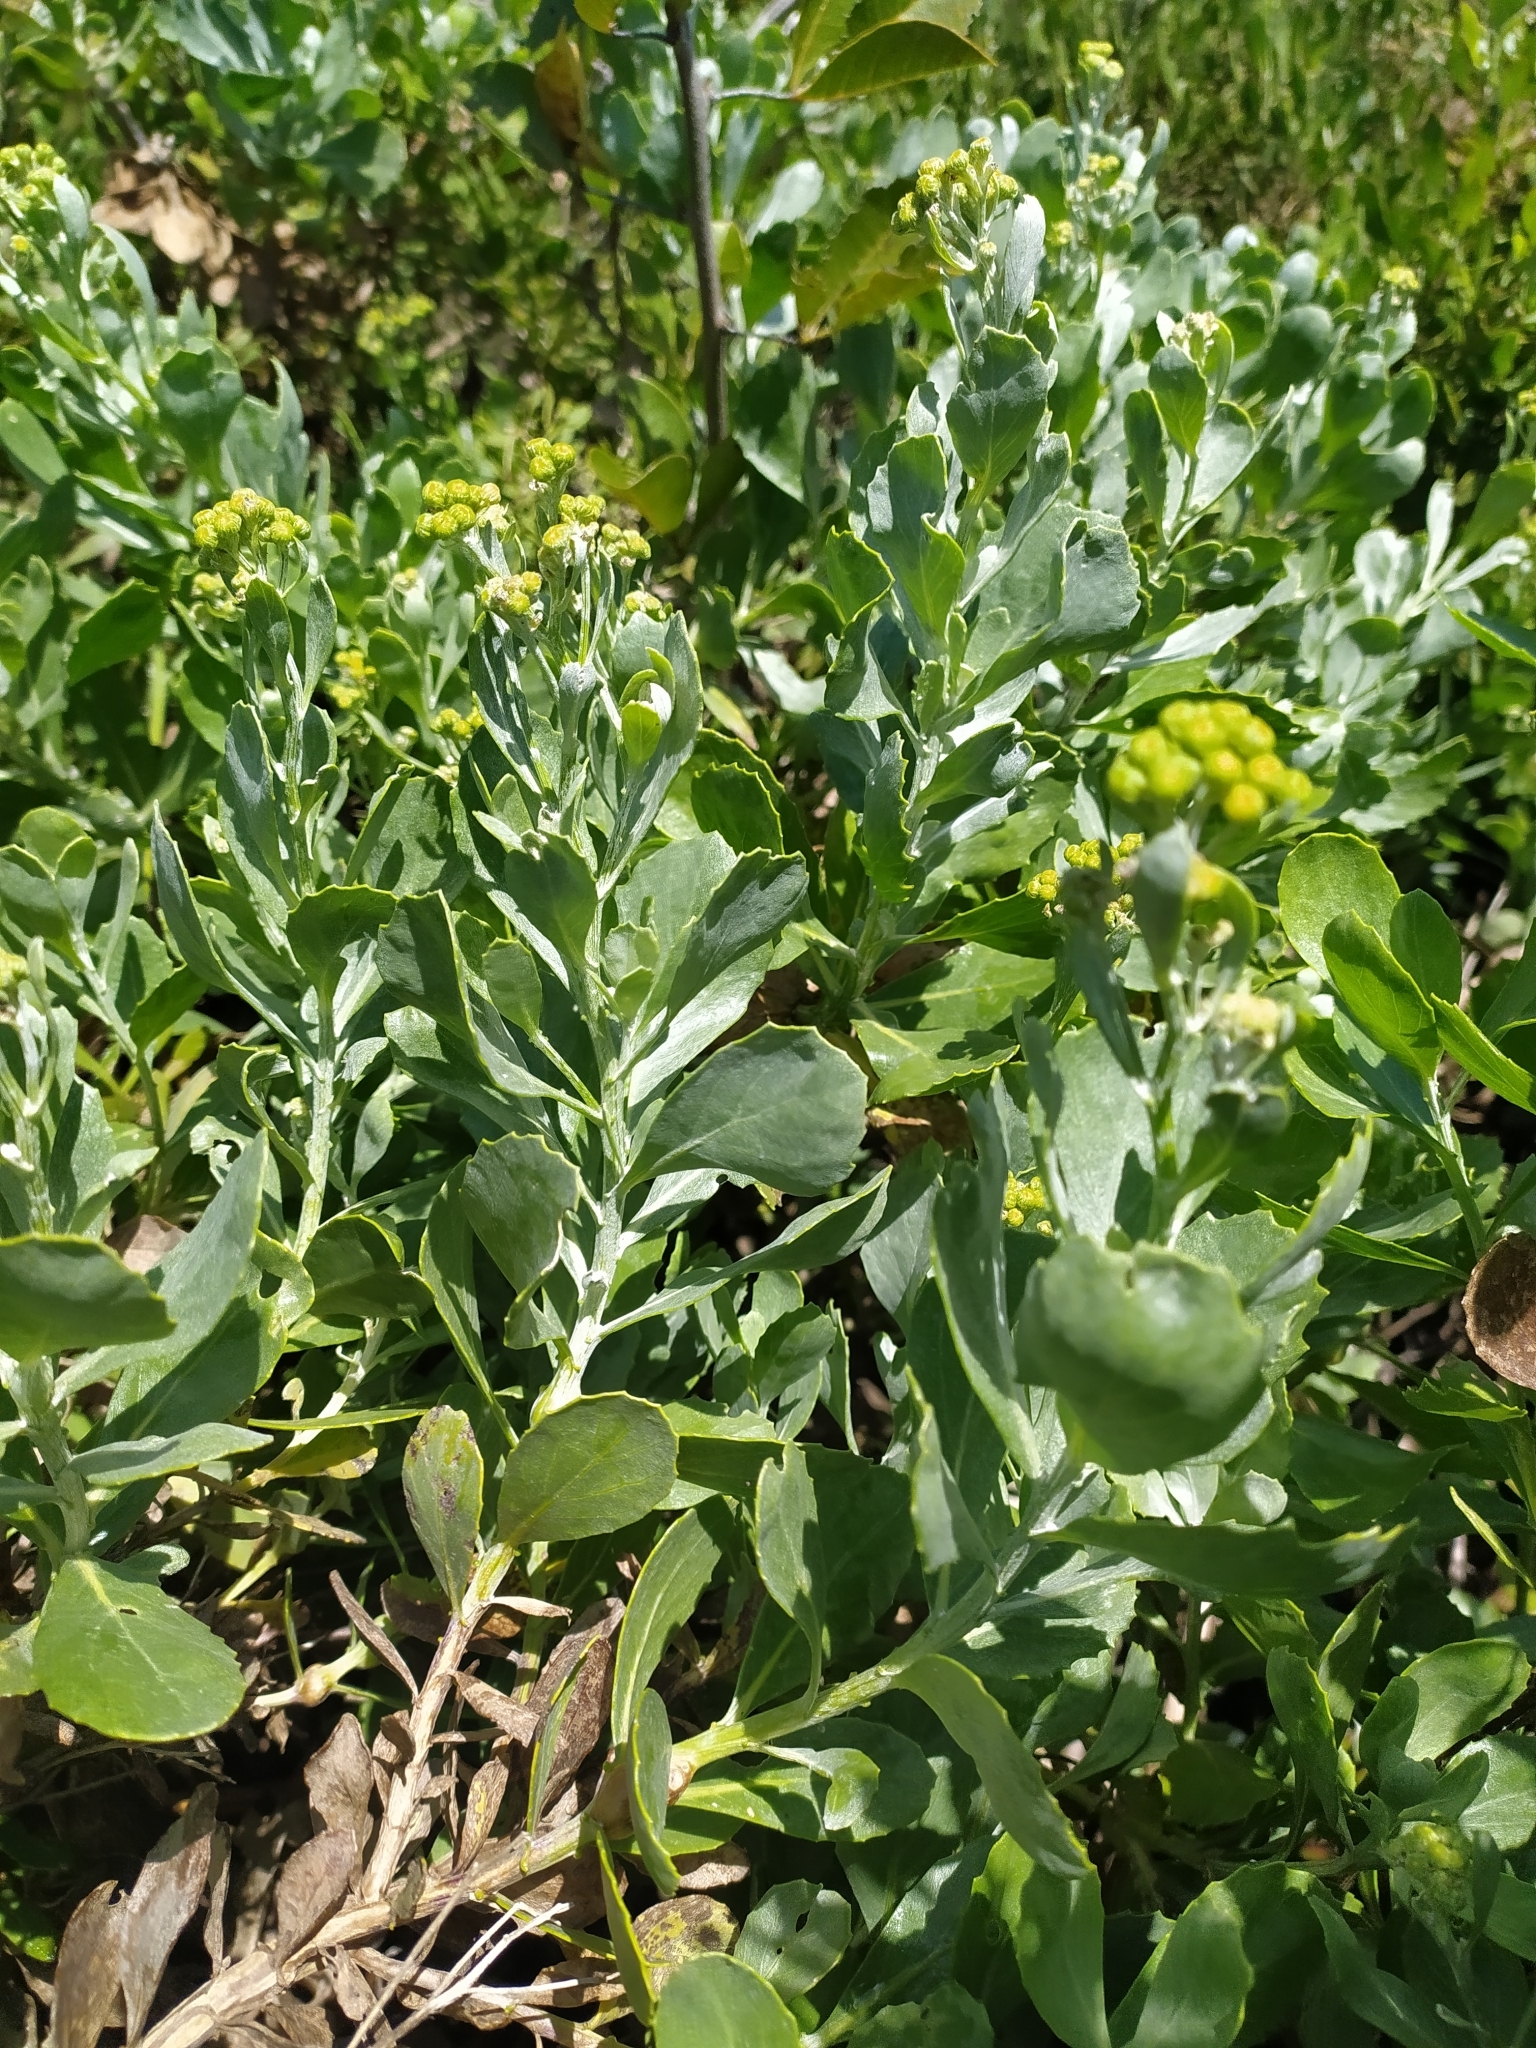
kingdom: Plantae
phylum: Tracheophyta
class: Magnoliopsida
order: Asterales
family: Asteraceae
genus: Senecio
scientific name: Senecio halimifolius
